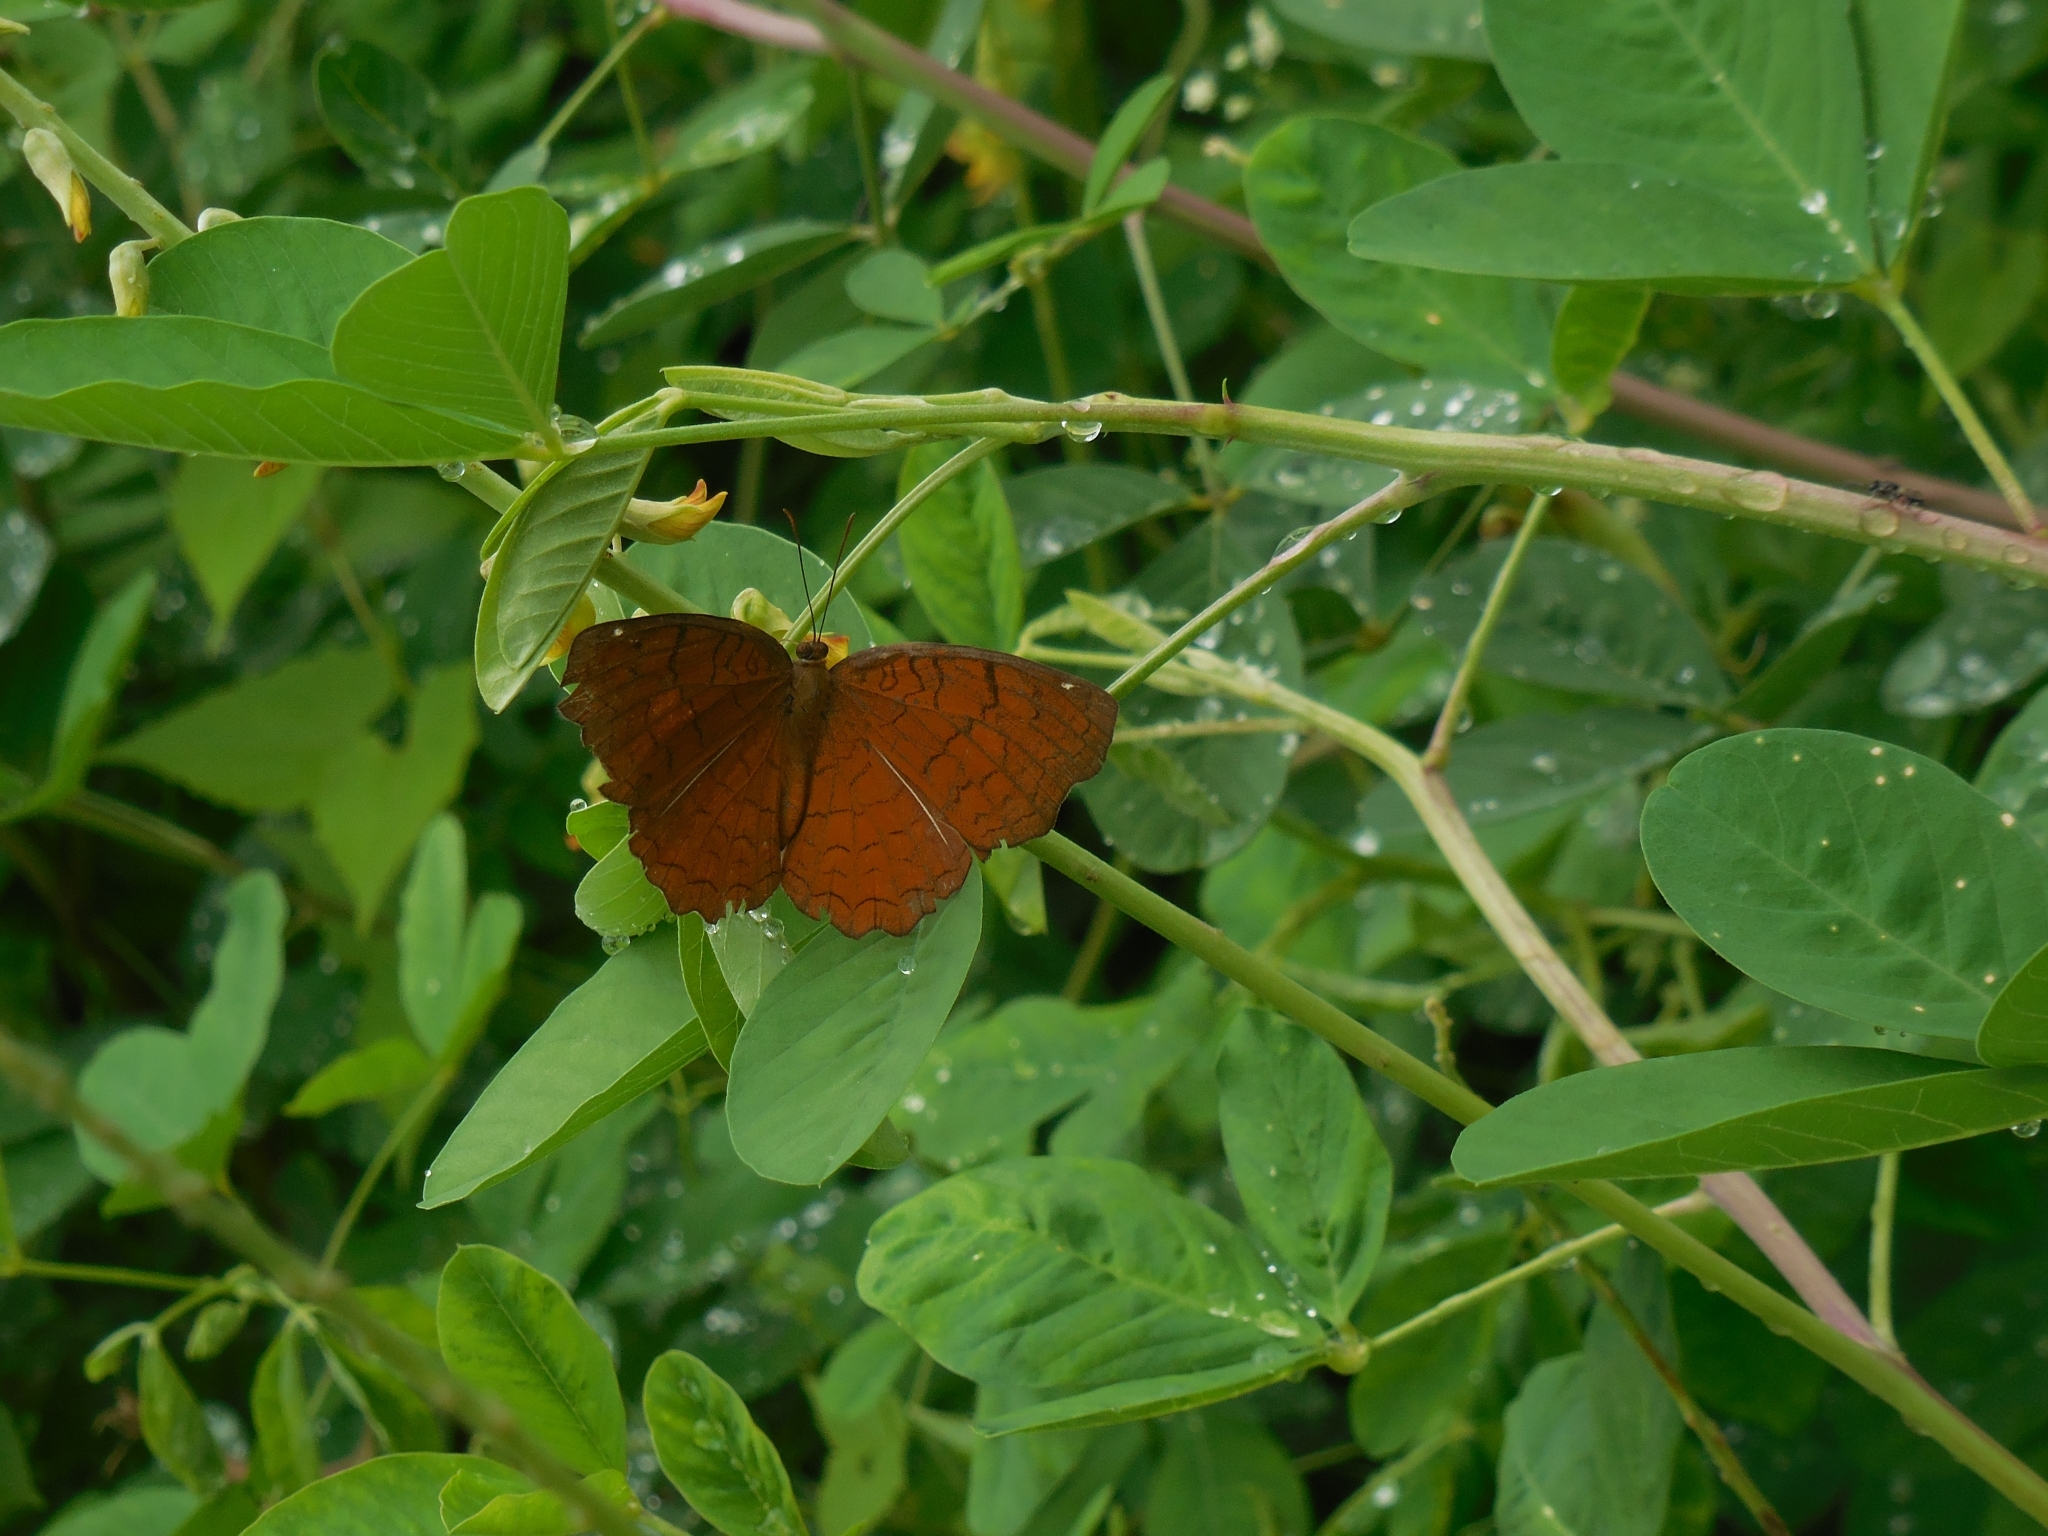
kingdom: Animalia
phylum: Arthropoda
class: Insecta
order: Lepidoptera
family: Nymphalidae
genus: Ariadne
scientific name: Ariadne ariadne
